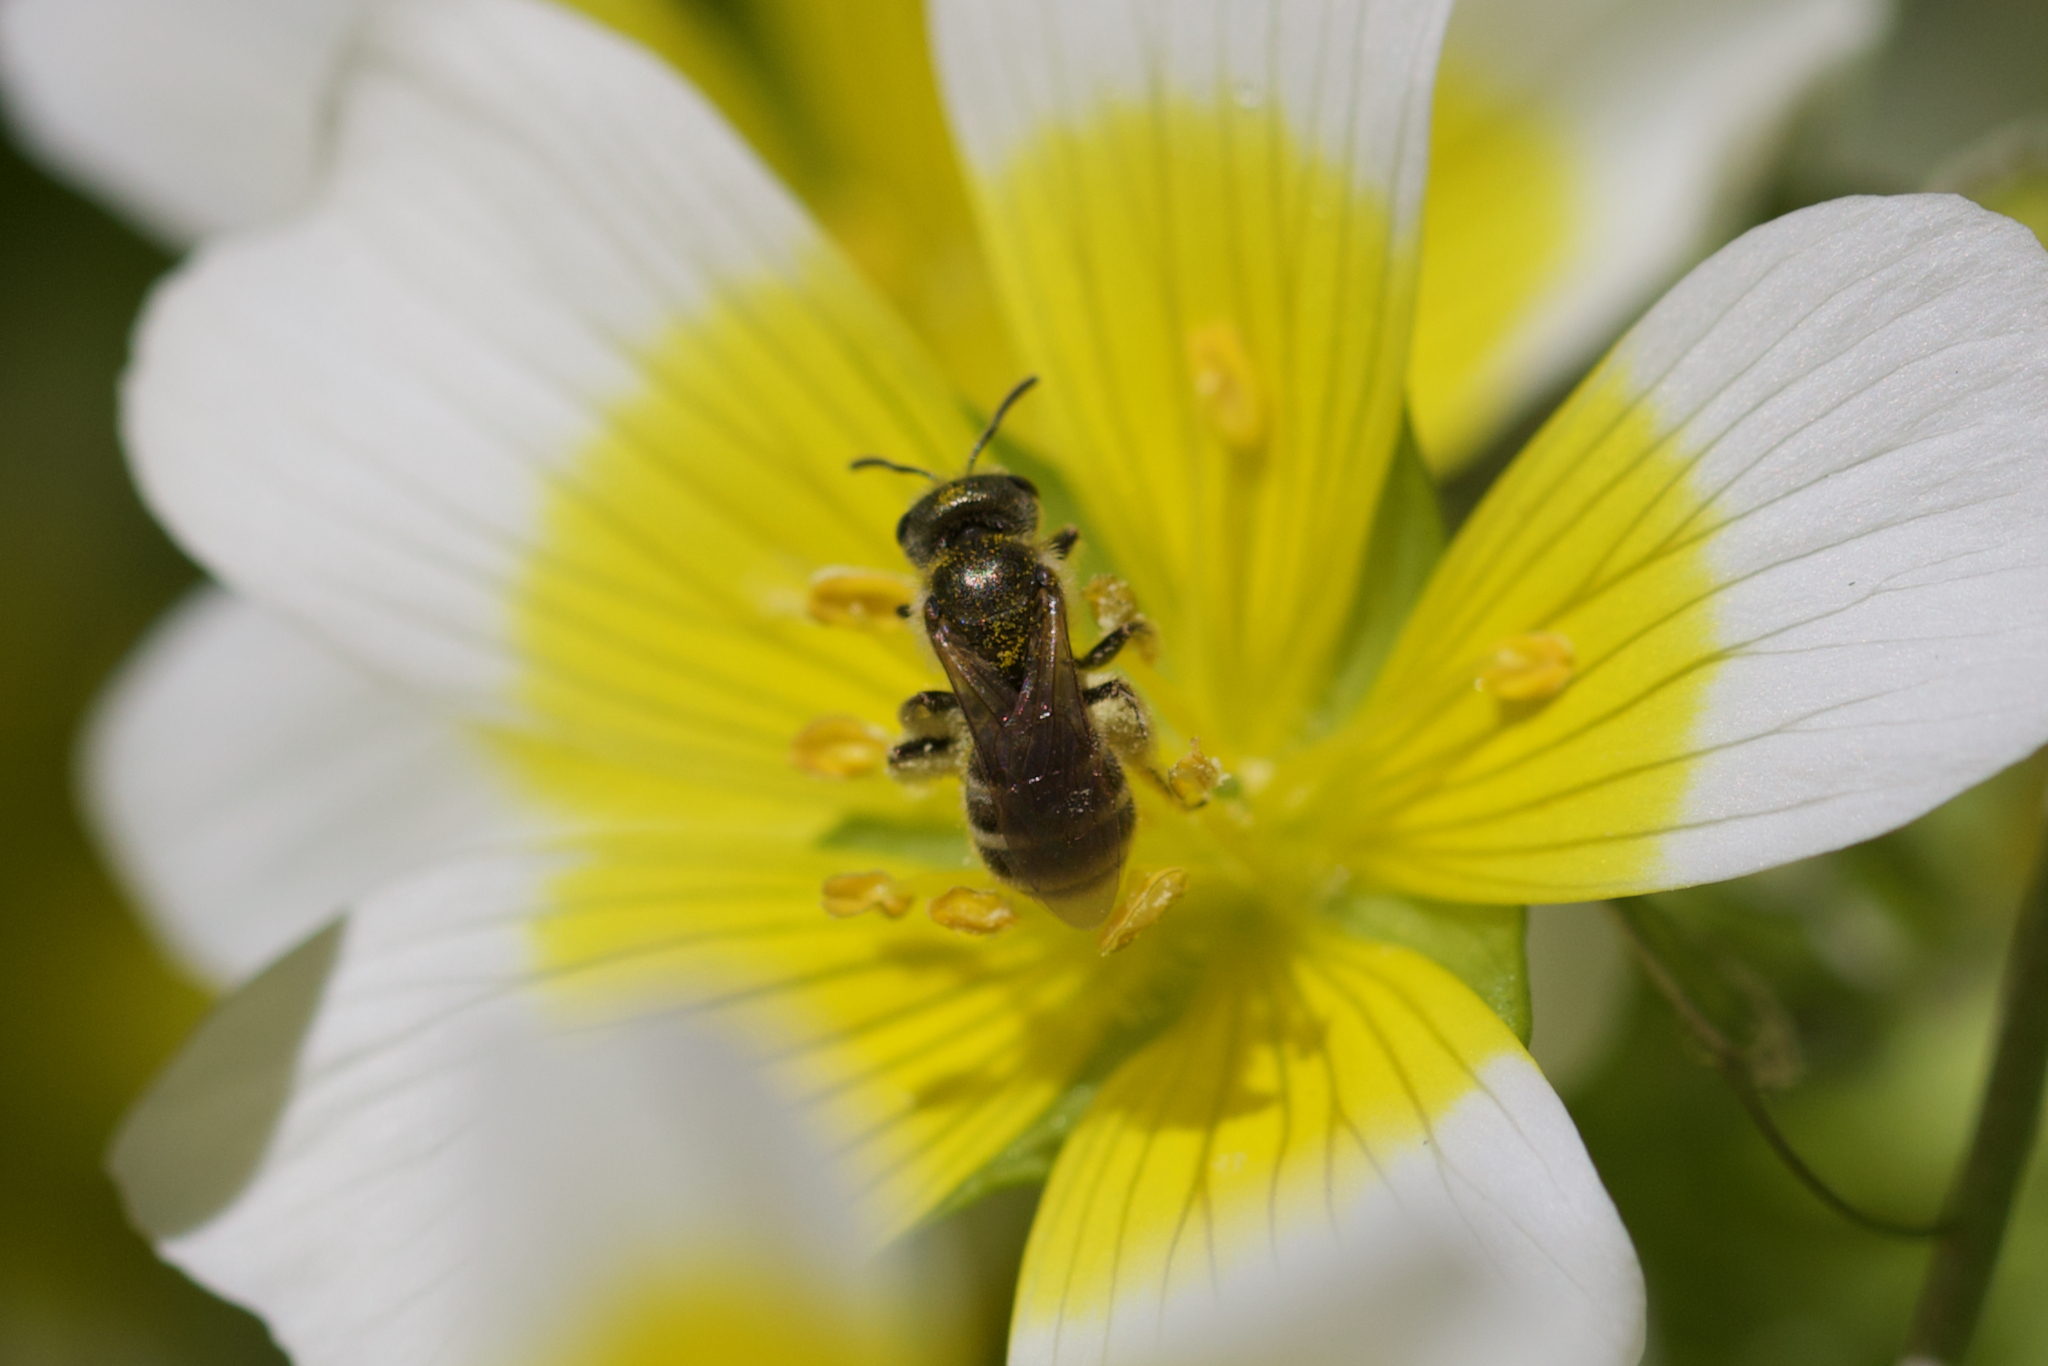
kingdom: Animalia
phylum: Arthropoda
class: Insecta
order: Hymenoptera
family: Halictidae
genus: Halictus
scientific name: Halictus tripartitus
